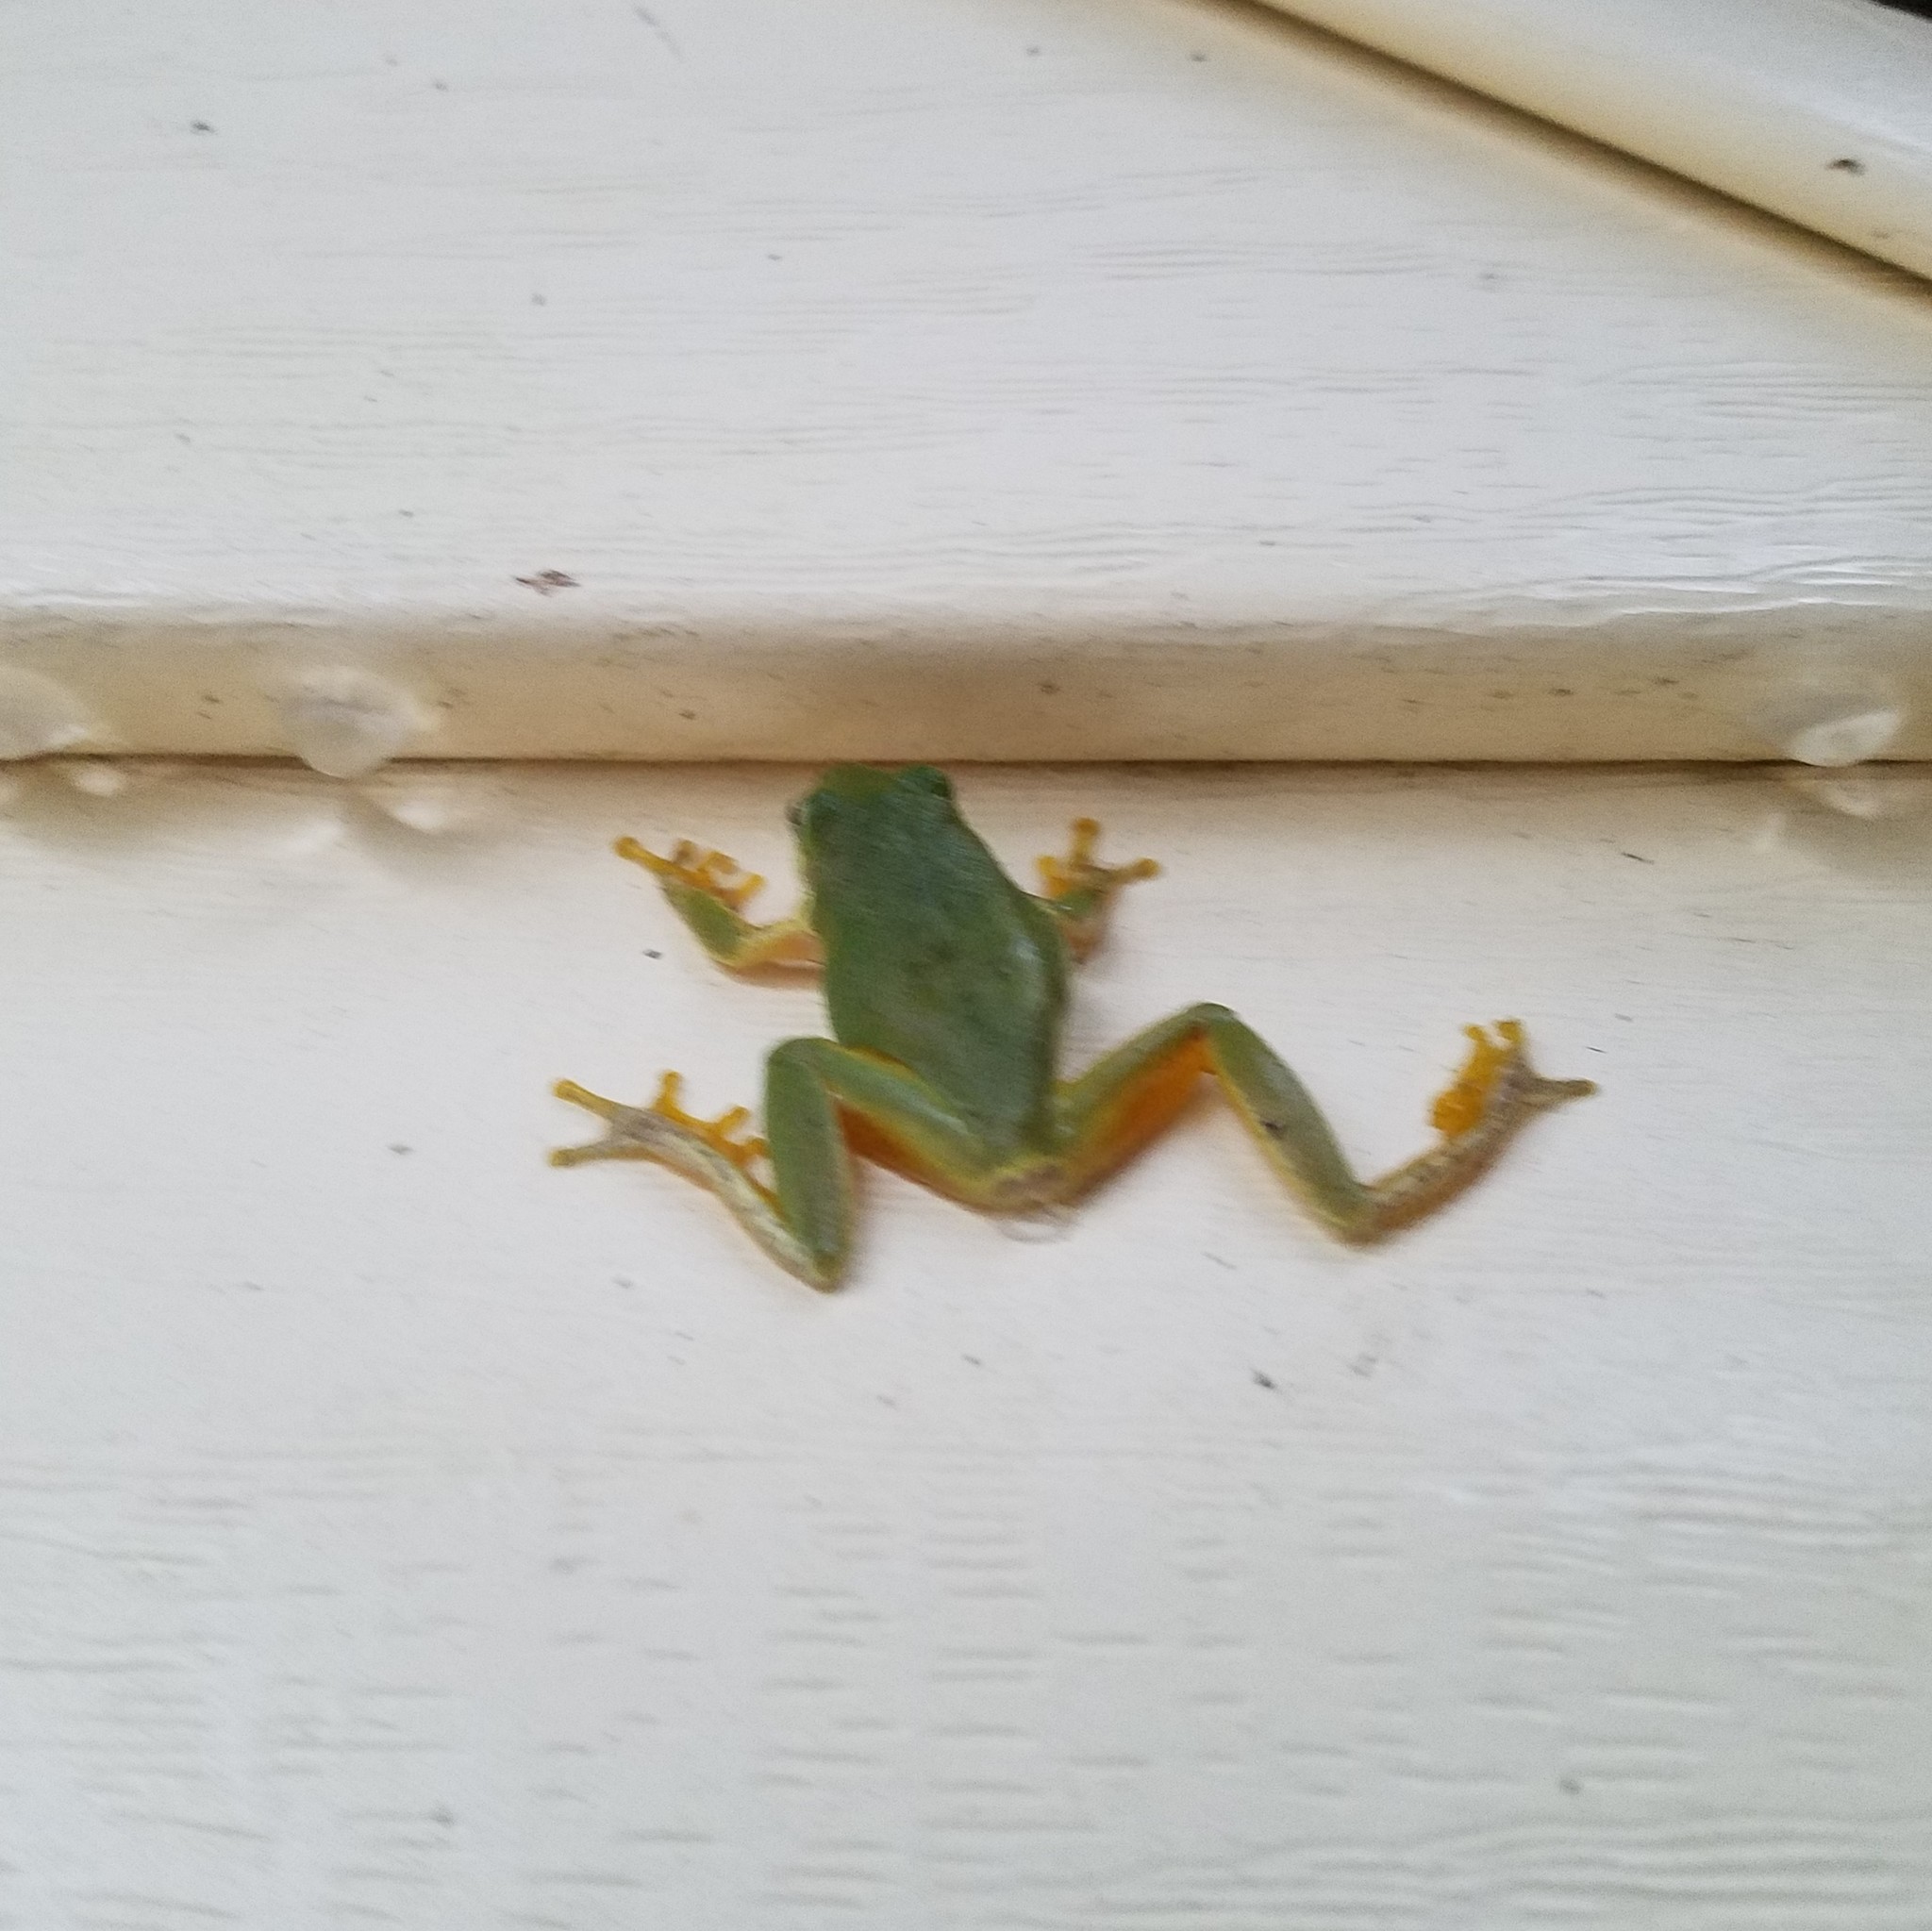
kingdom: Animalia
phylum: Chordata
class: Amphibia
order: Anura
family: Hylidae
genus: Dryophytes
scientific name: Dryophytes squirellus
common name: Squirrel treefrog
